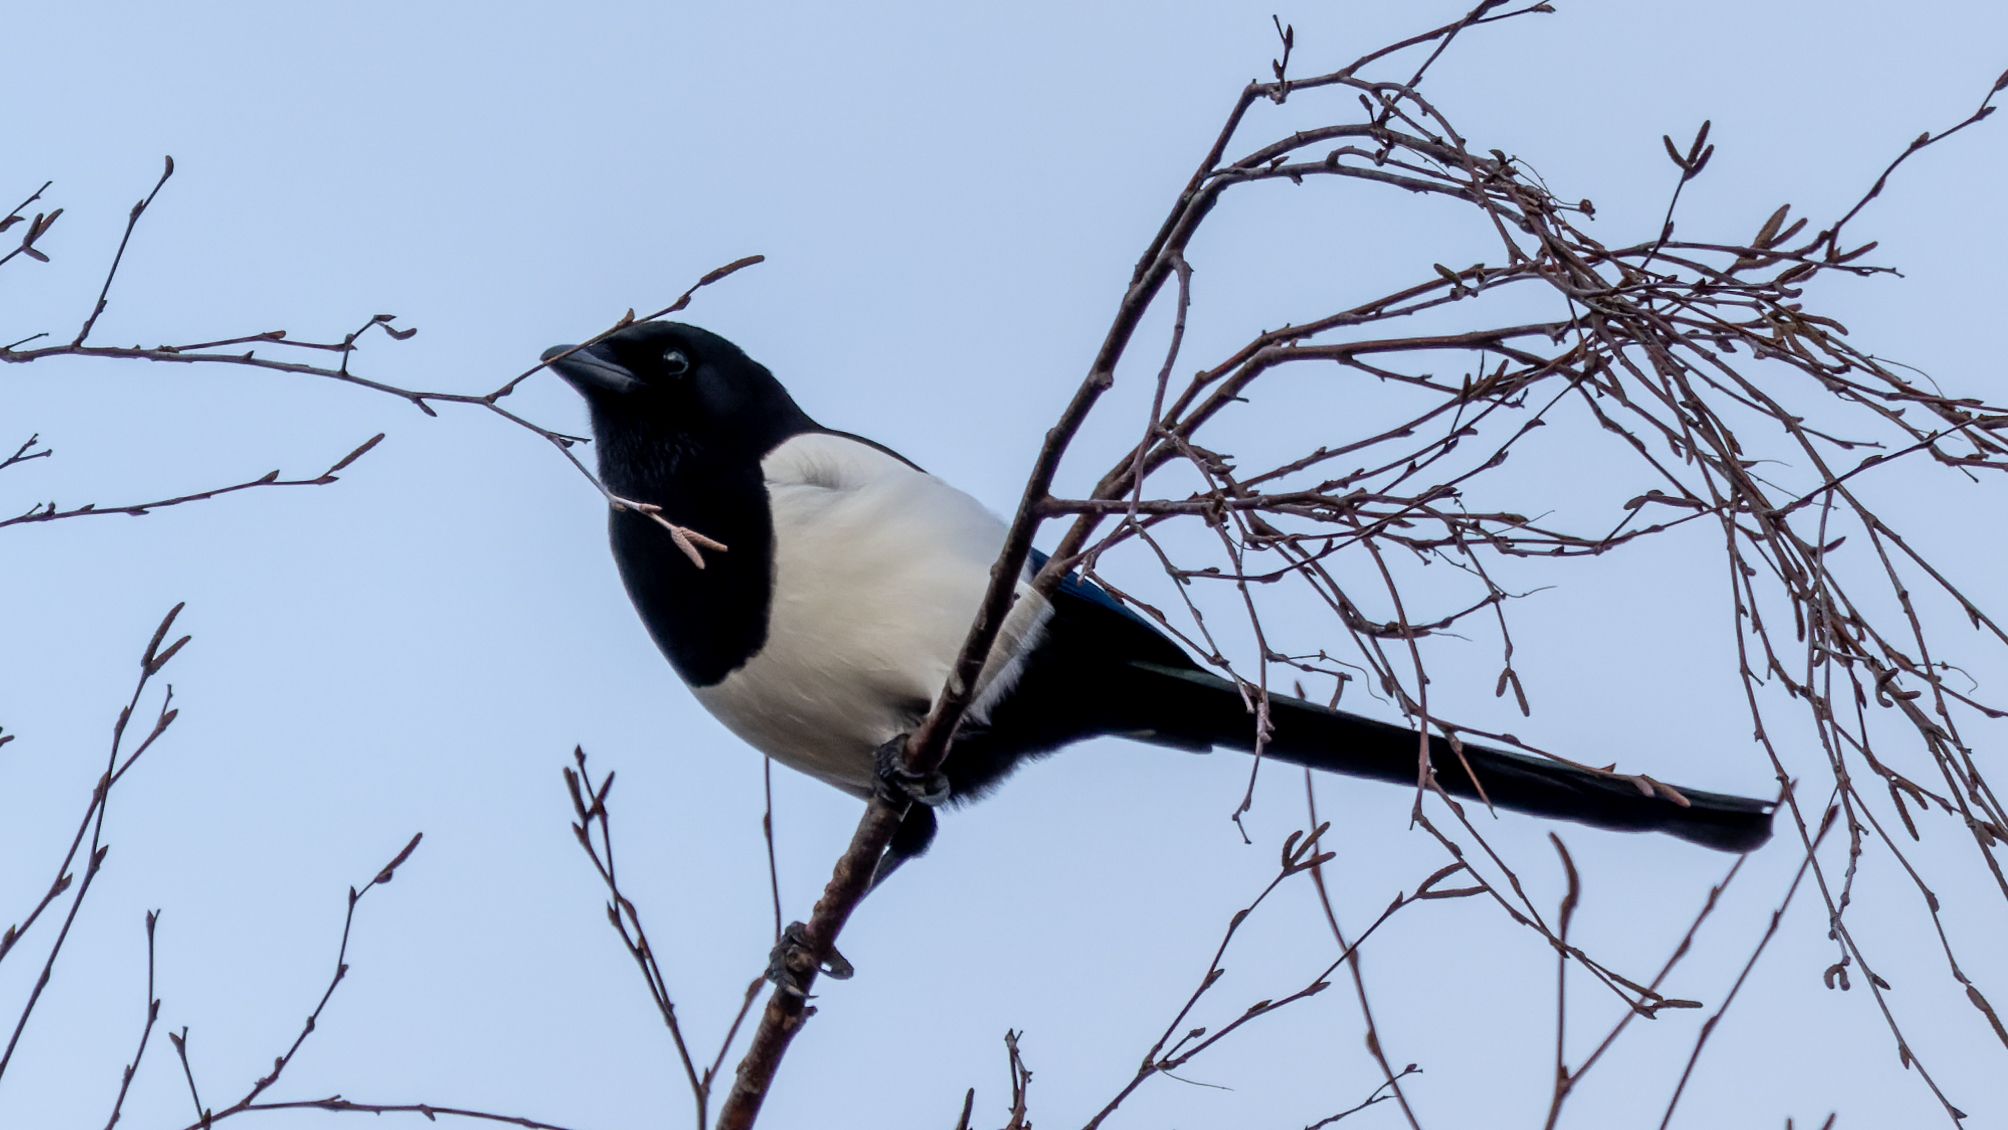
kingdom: Animalia
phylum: Chordata
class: Aves
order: Passeriformes
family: Corvidae
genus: Pica
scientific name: Pica pica
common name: Eurasian magpie
